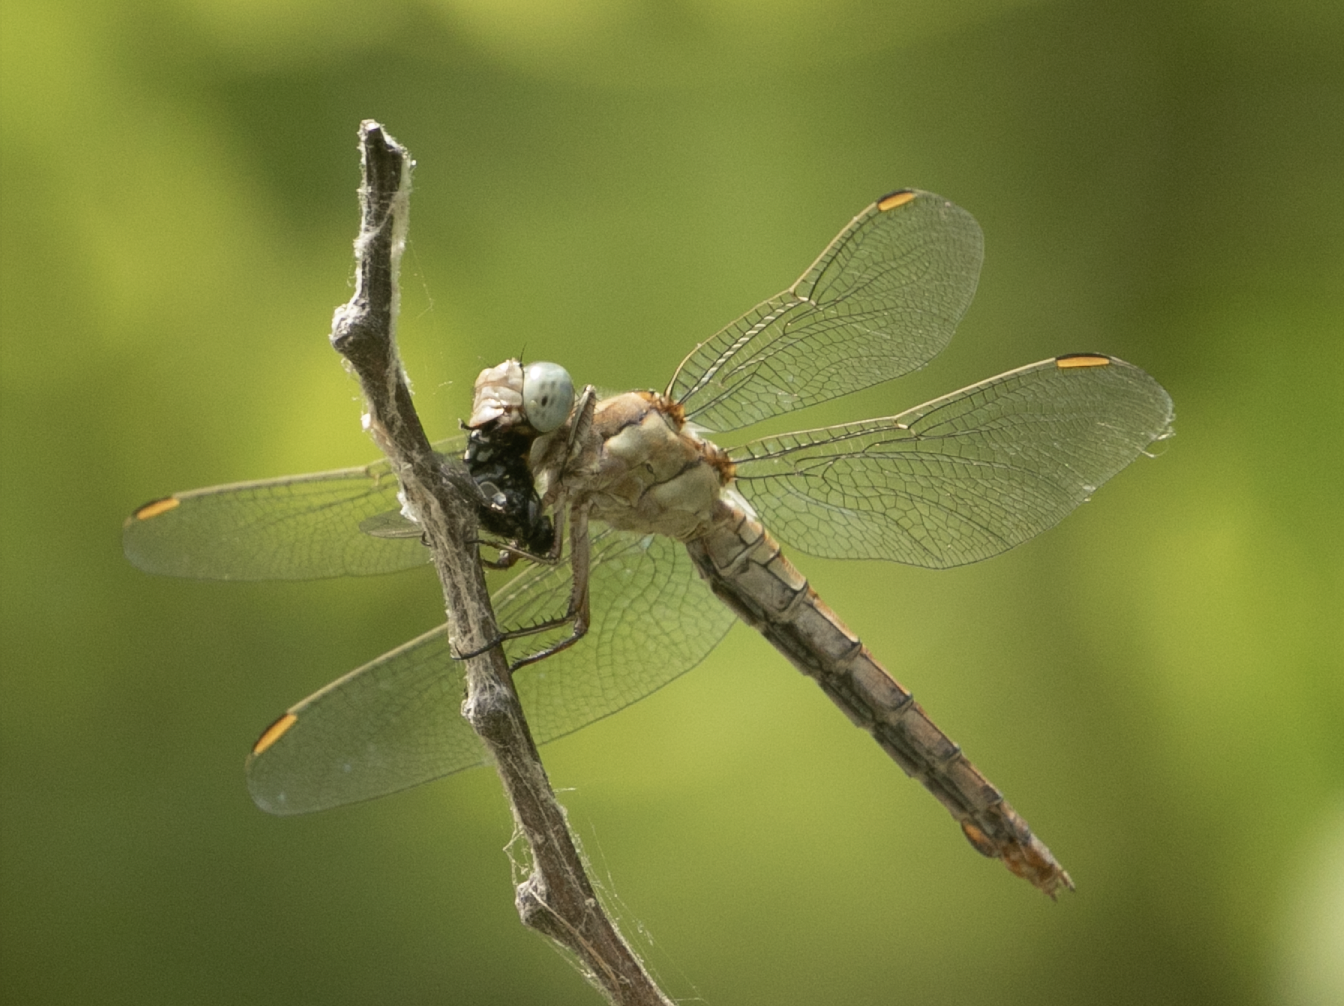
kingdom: Animalia
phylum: Arthropoda
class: Insecta
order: Odonata
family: Libellulidae
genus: Orthetrum
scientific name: Orthetrum brunneum
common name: Southern skimmer
